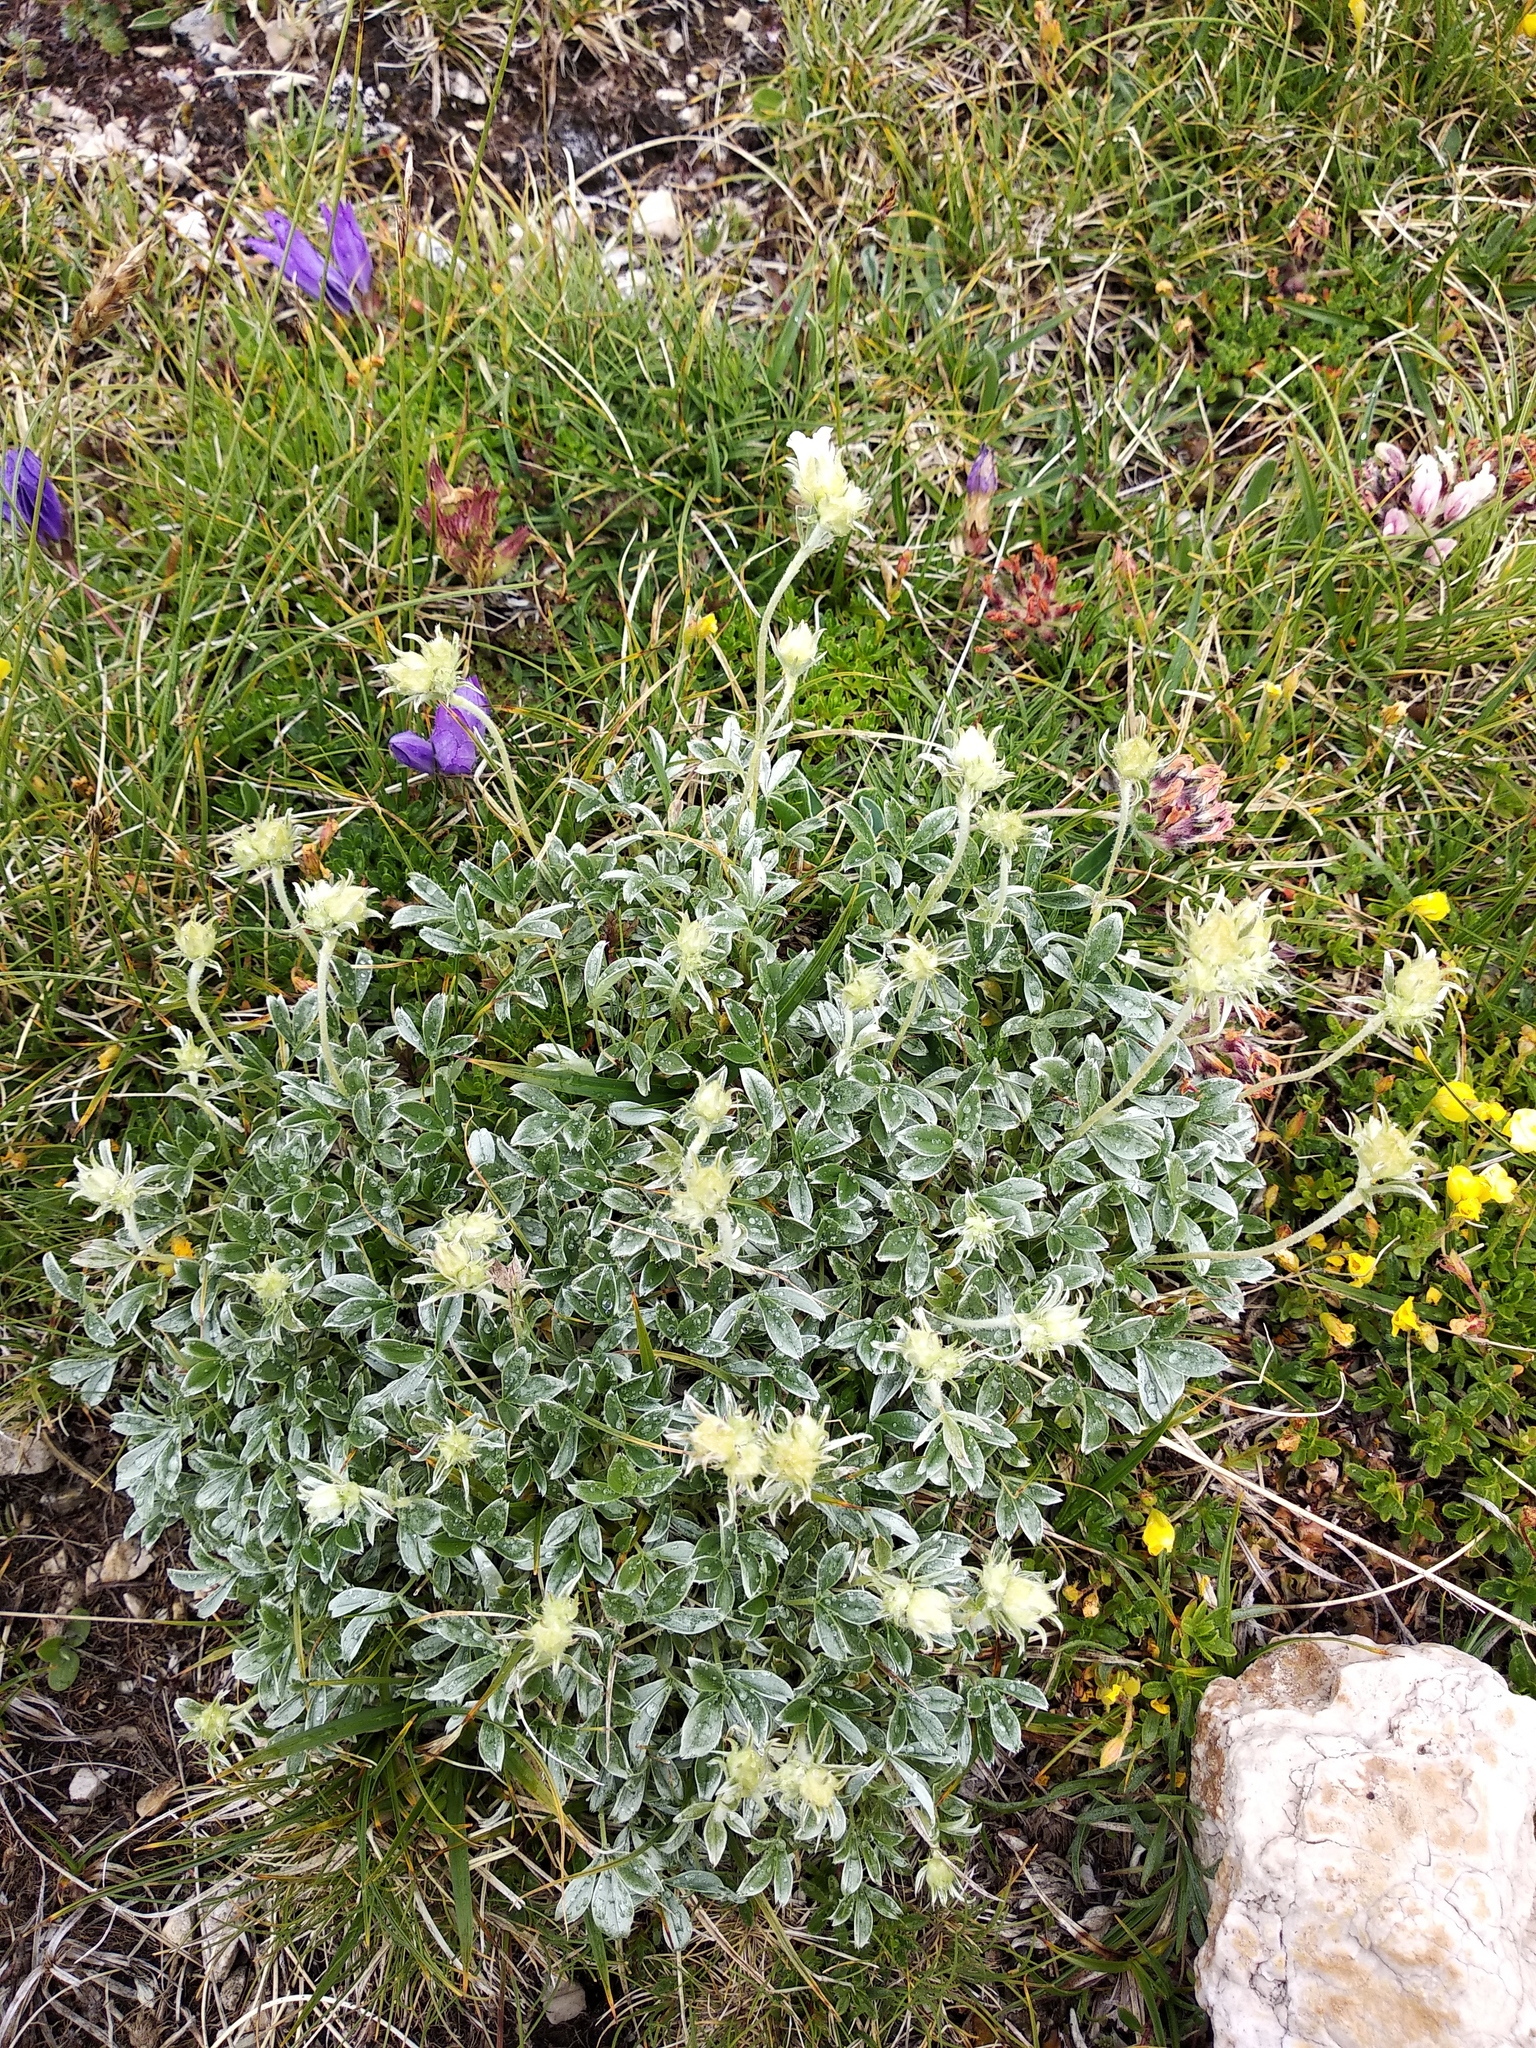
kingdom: Plantae
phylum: Tracheophyta
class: Magnoliopsida
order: Rosales
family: Rosaceae
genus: Potentilla
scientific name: Potentilla apennina
